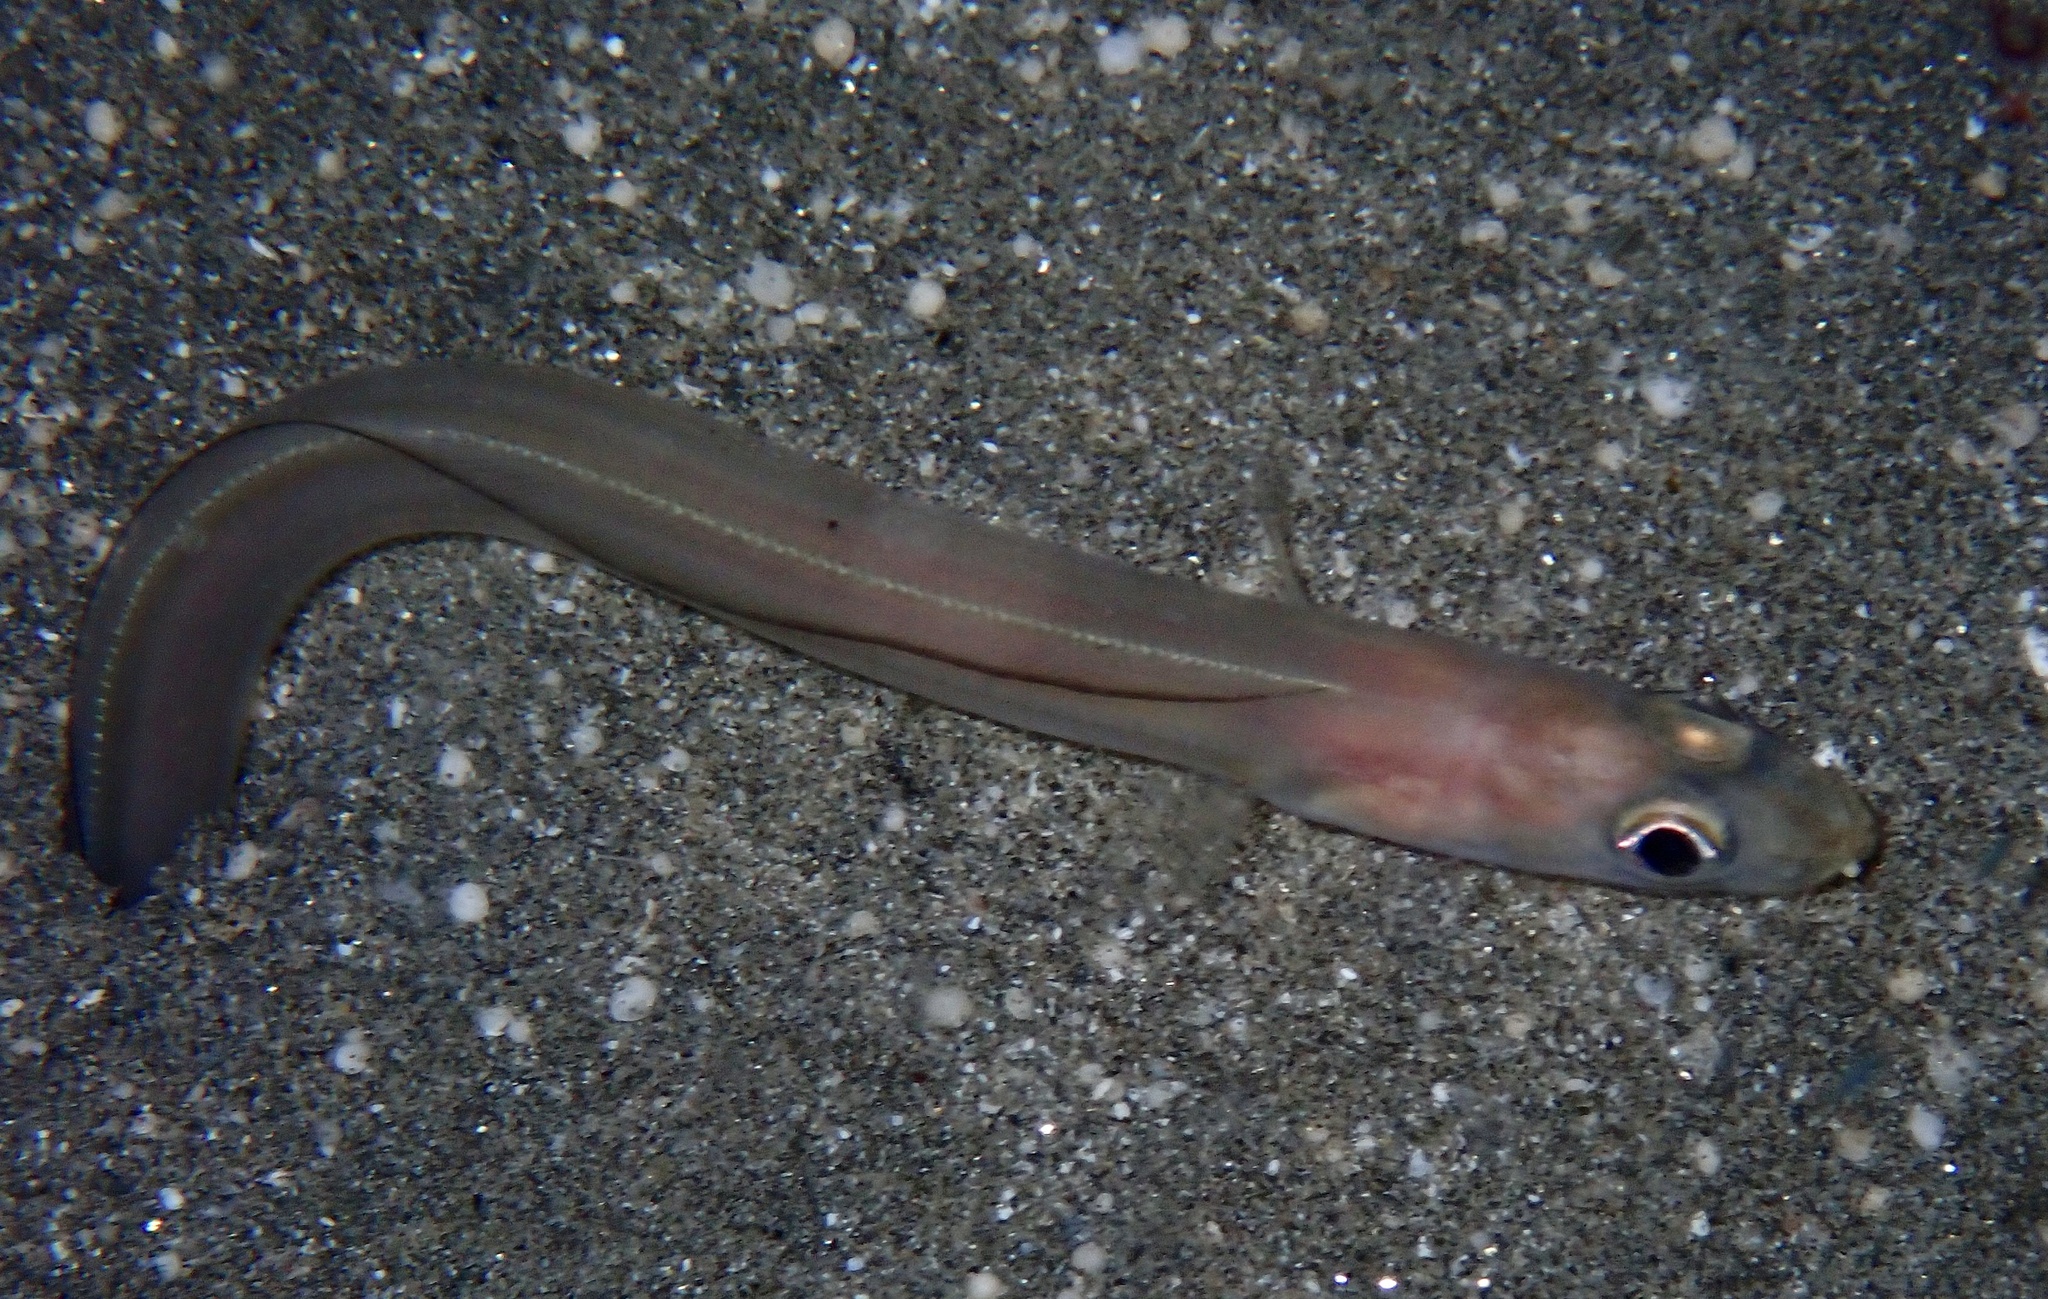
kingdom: Animalia
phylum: Chordata
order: Anguilliformes
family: Congridae
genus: Ariosoma
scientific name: Ariosoma sanzoi
